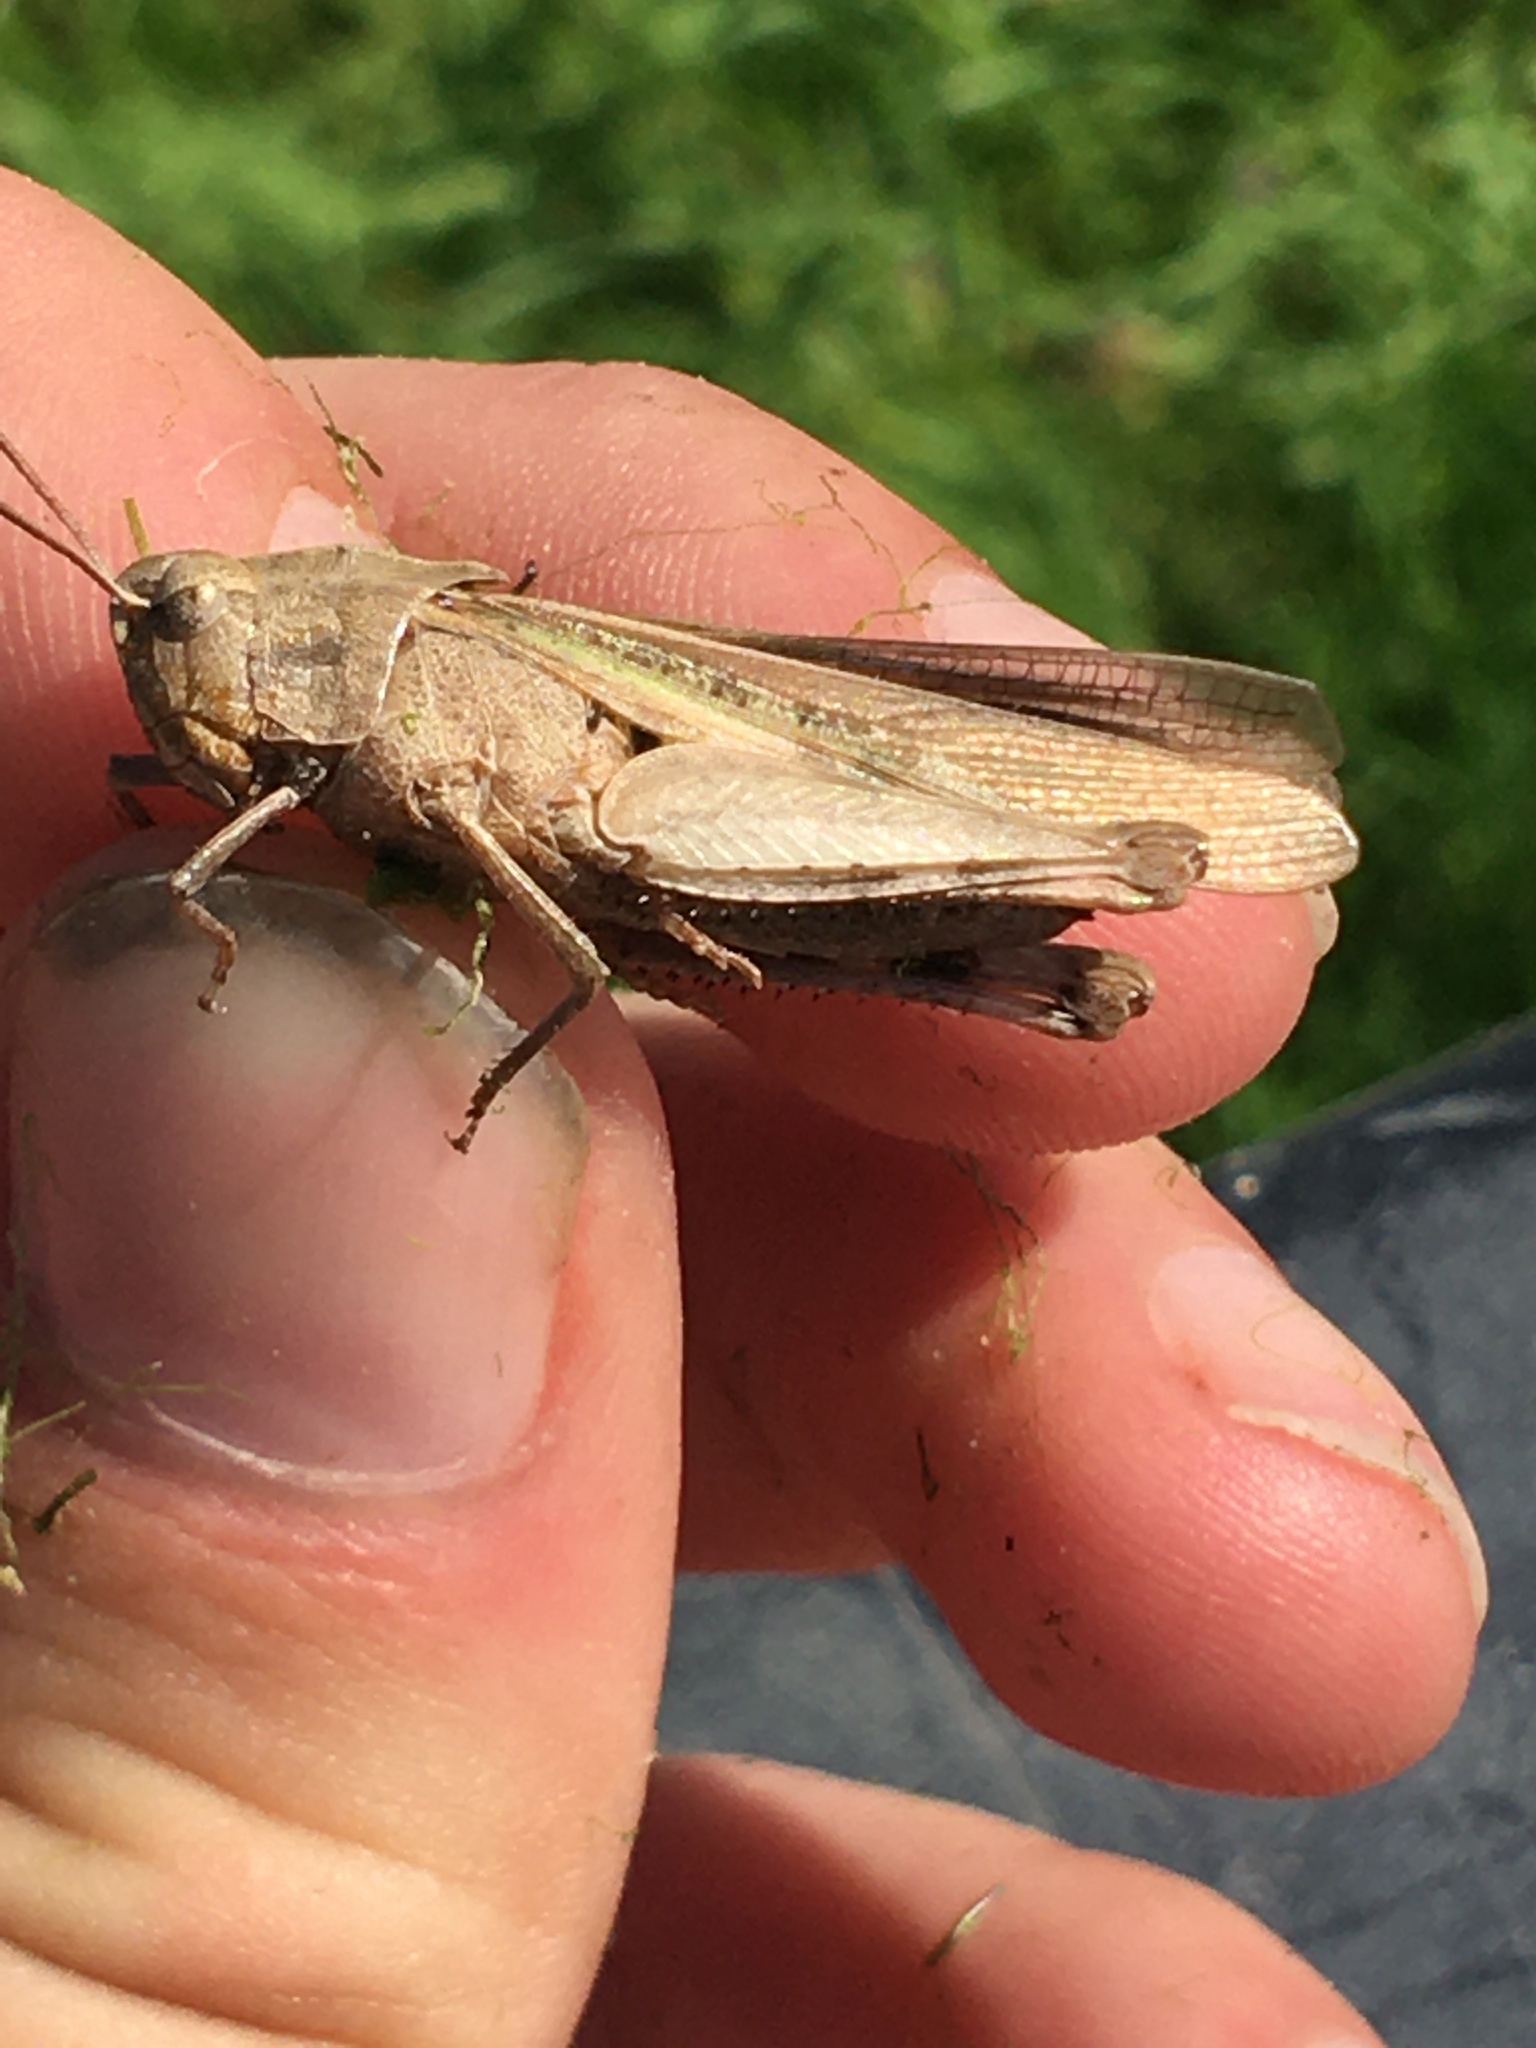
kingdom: Animalia
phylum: Arthropoda
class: Insecta
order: Orthoptera
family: Acrididae
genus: Chortophaga
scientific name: Chortophaga viridifasciata
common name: Green-striped grasshopper
